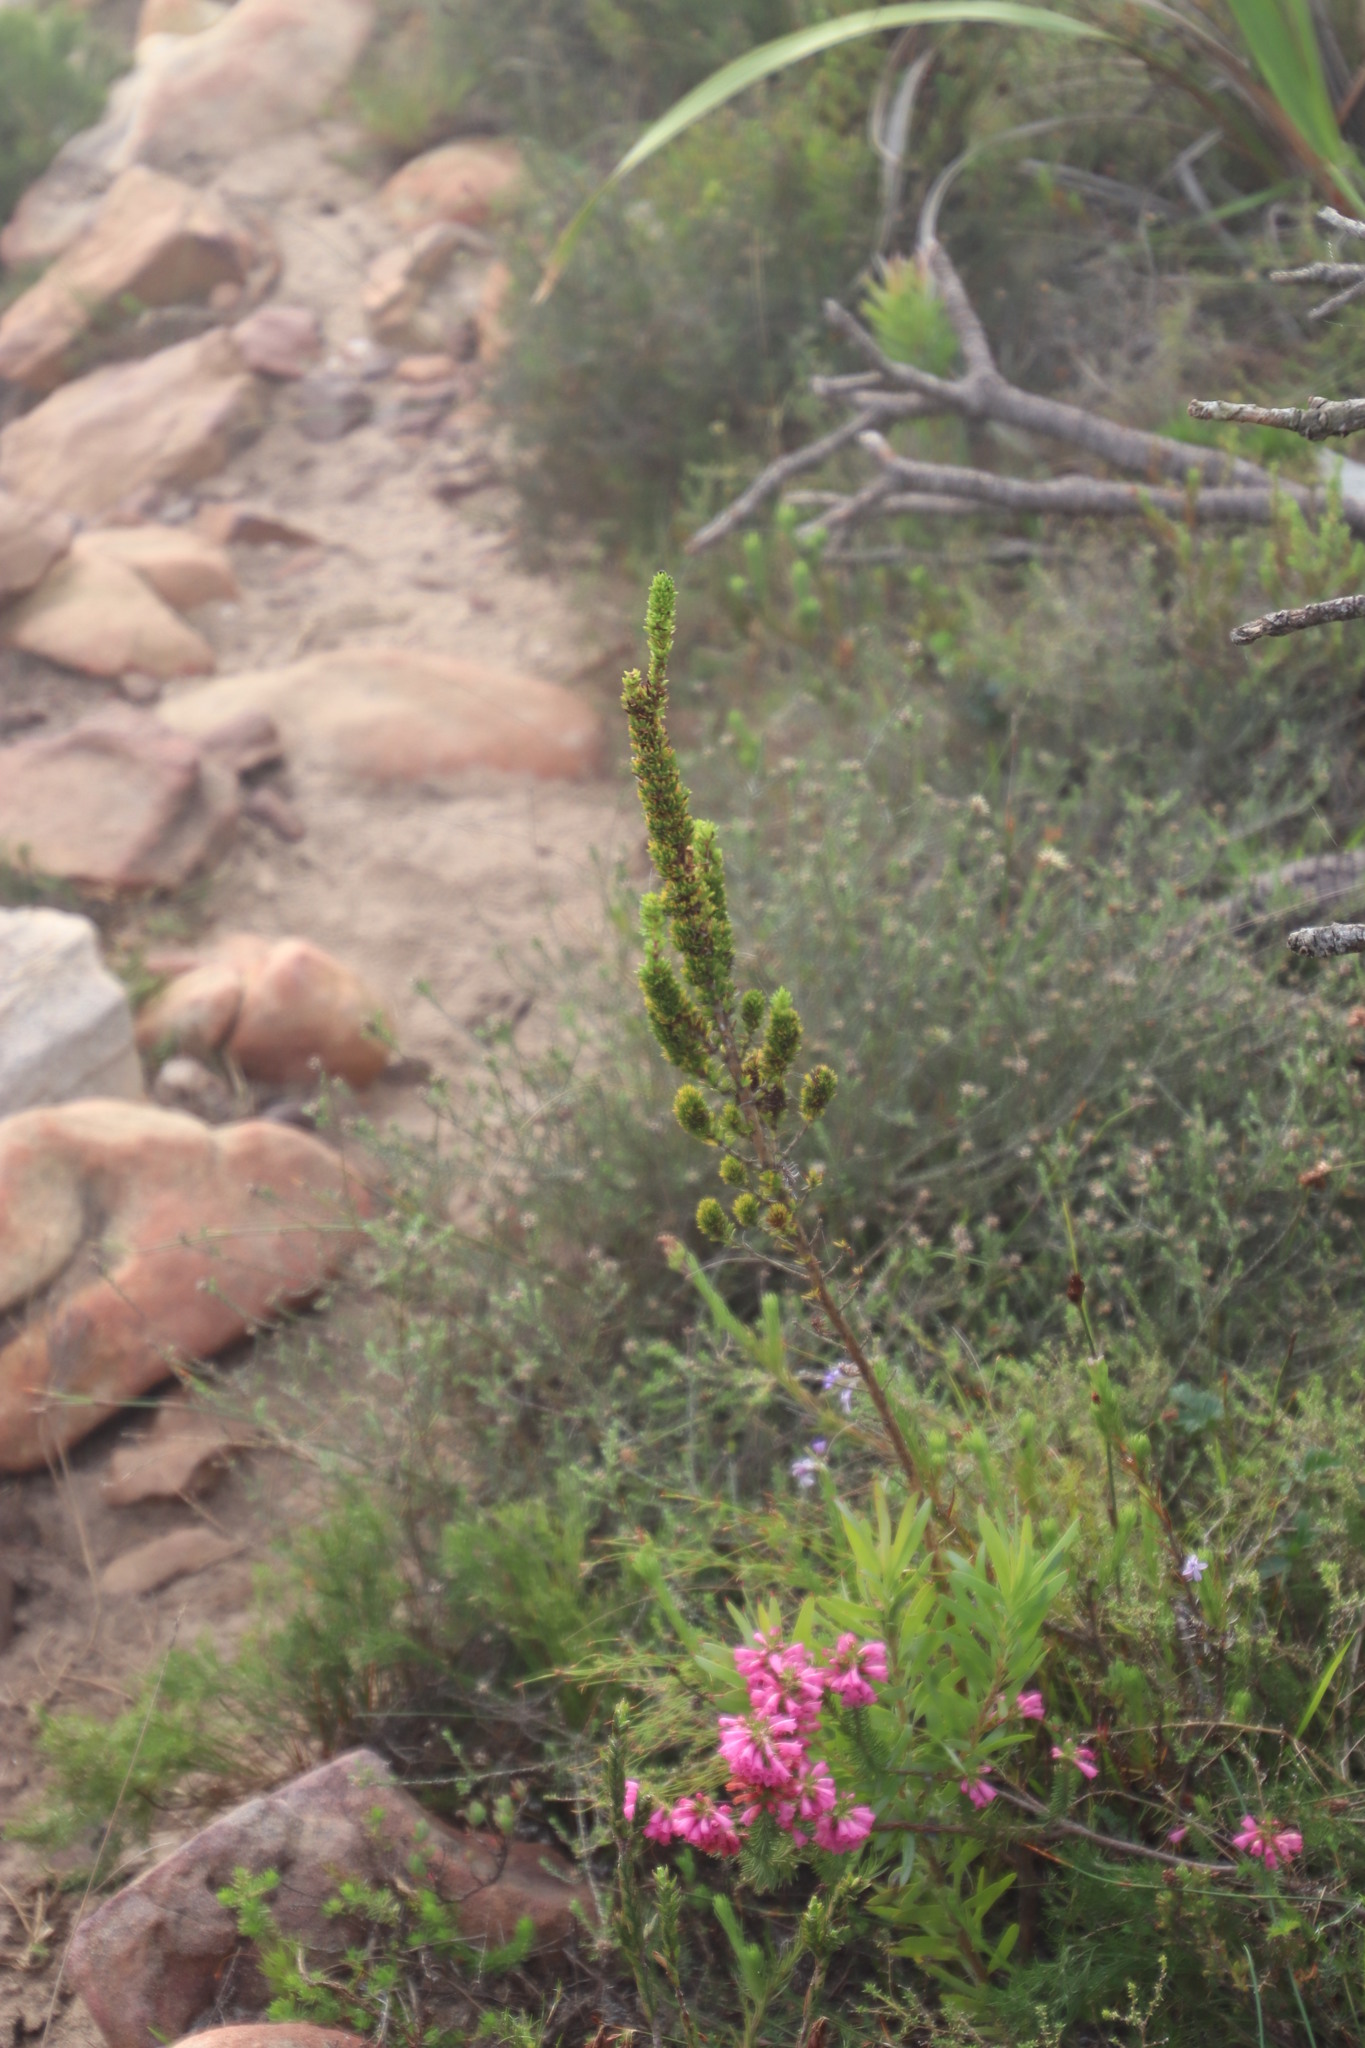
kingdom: Plantae
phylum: Tracheophyta
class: Magnoliopsida
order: Gentianales
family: Rubiaceae
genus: Anthospermum
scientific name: Anthospermum aethiopicum
